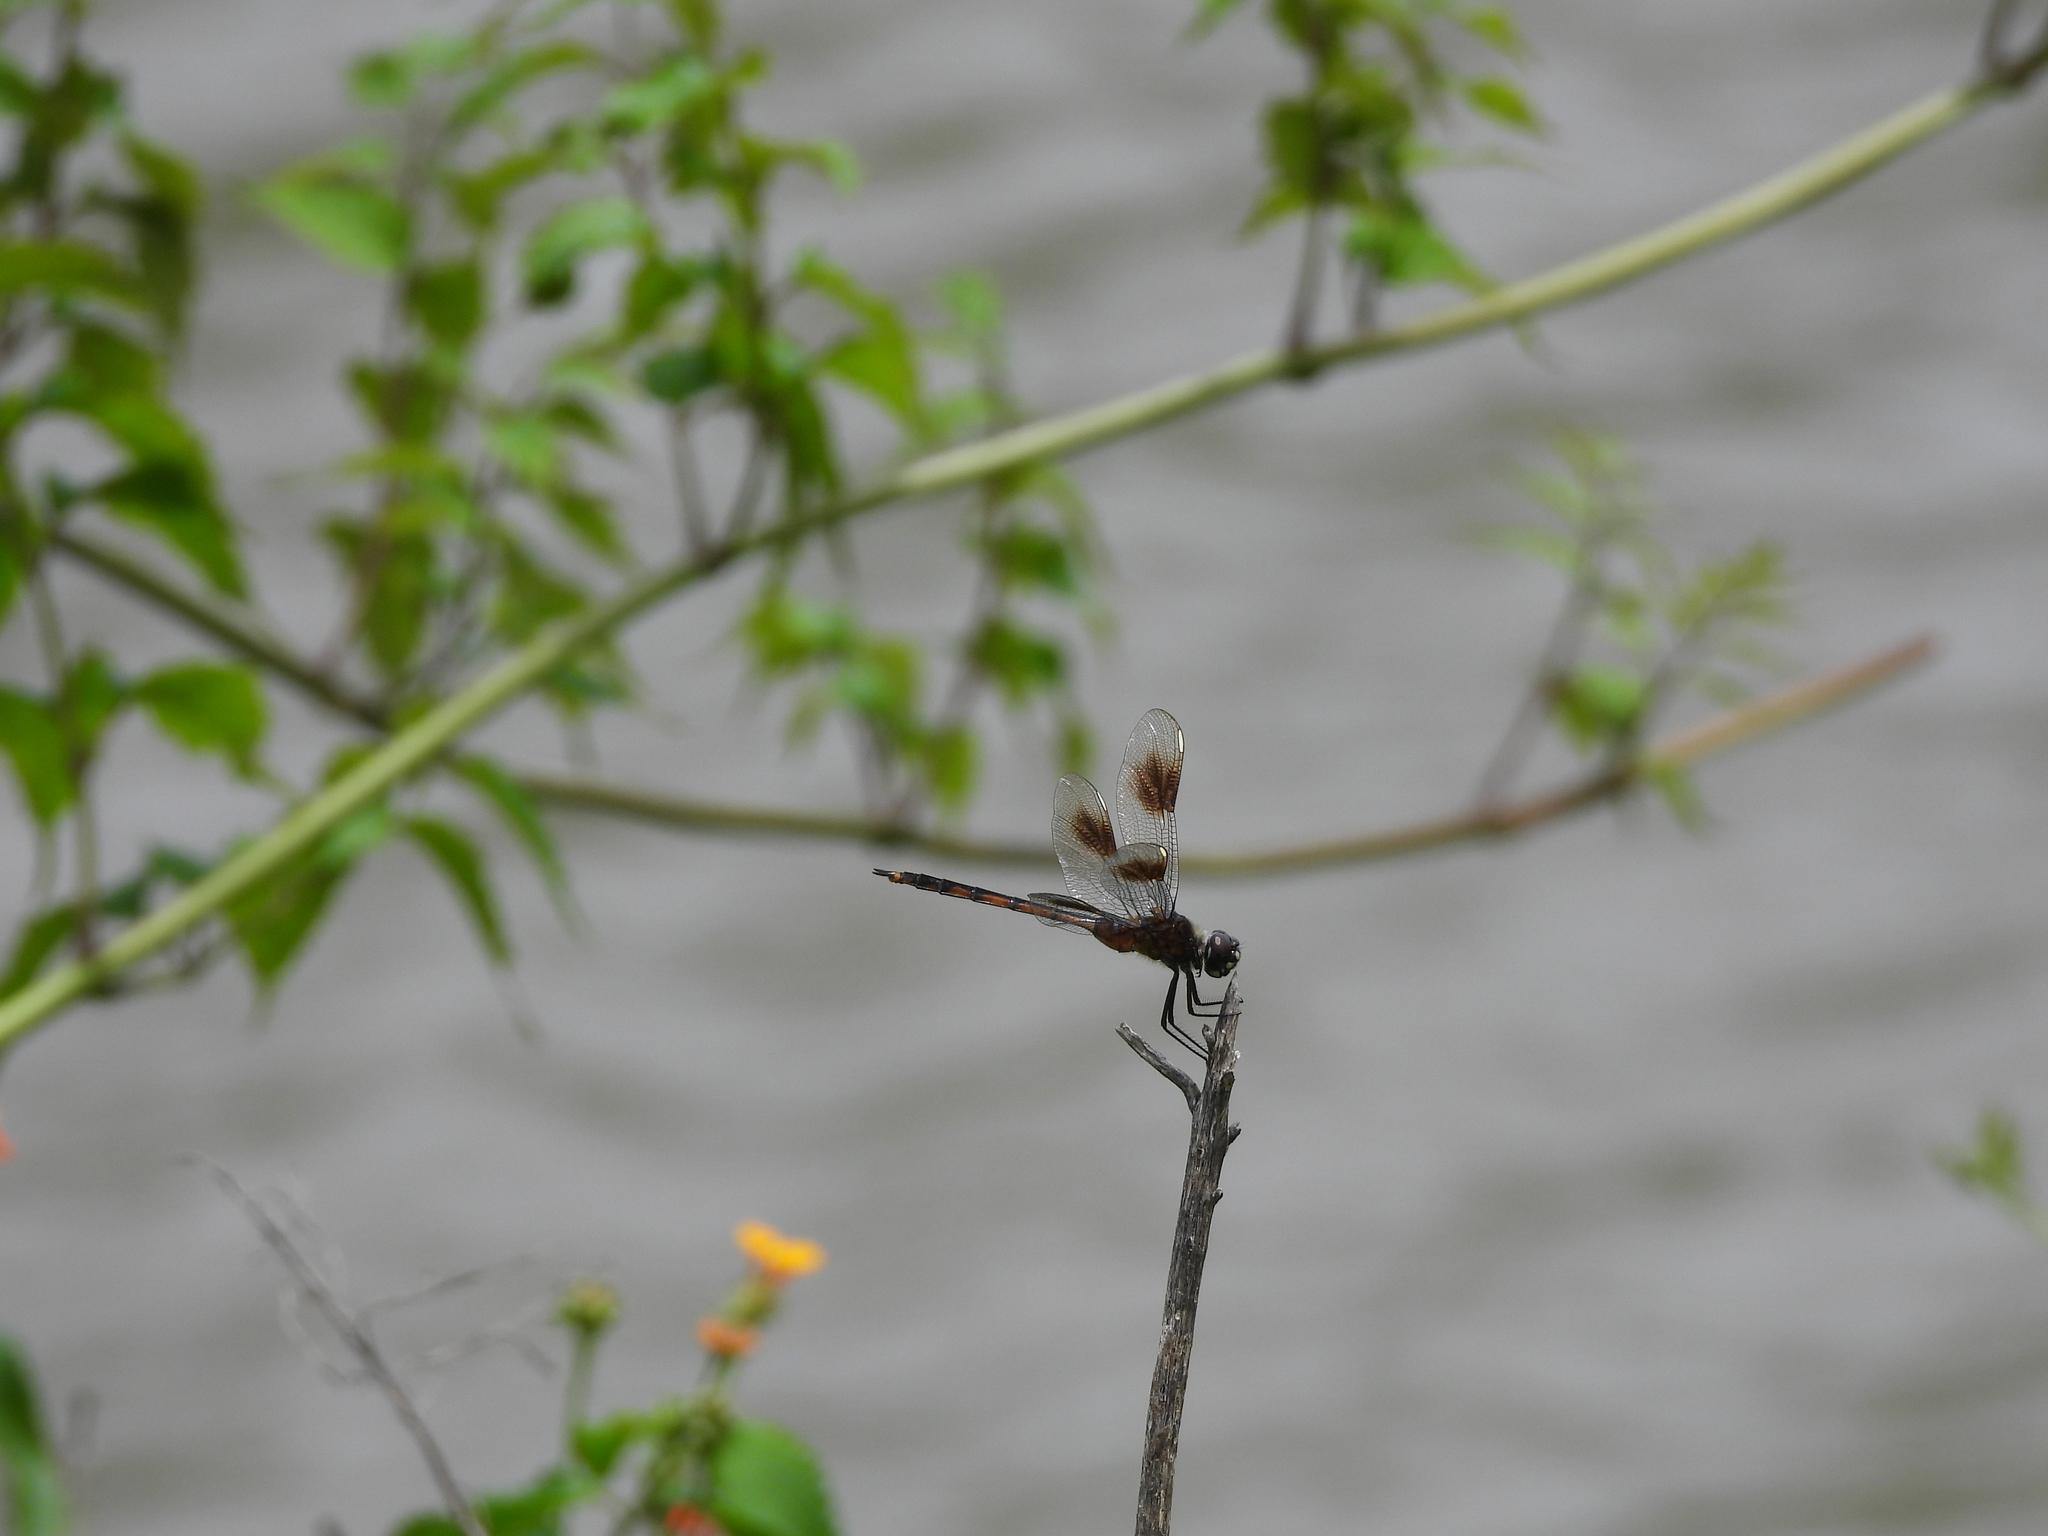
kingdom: Animalia
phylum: Arthropoda
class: Insecta
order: Odonata
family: Libellulidae
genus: Brachymesia
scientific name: Brachymesia gravida
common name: Four-spotted pennant
